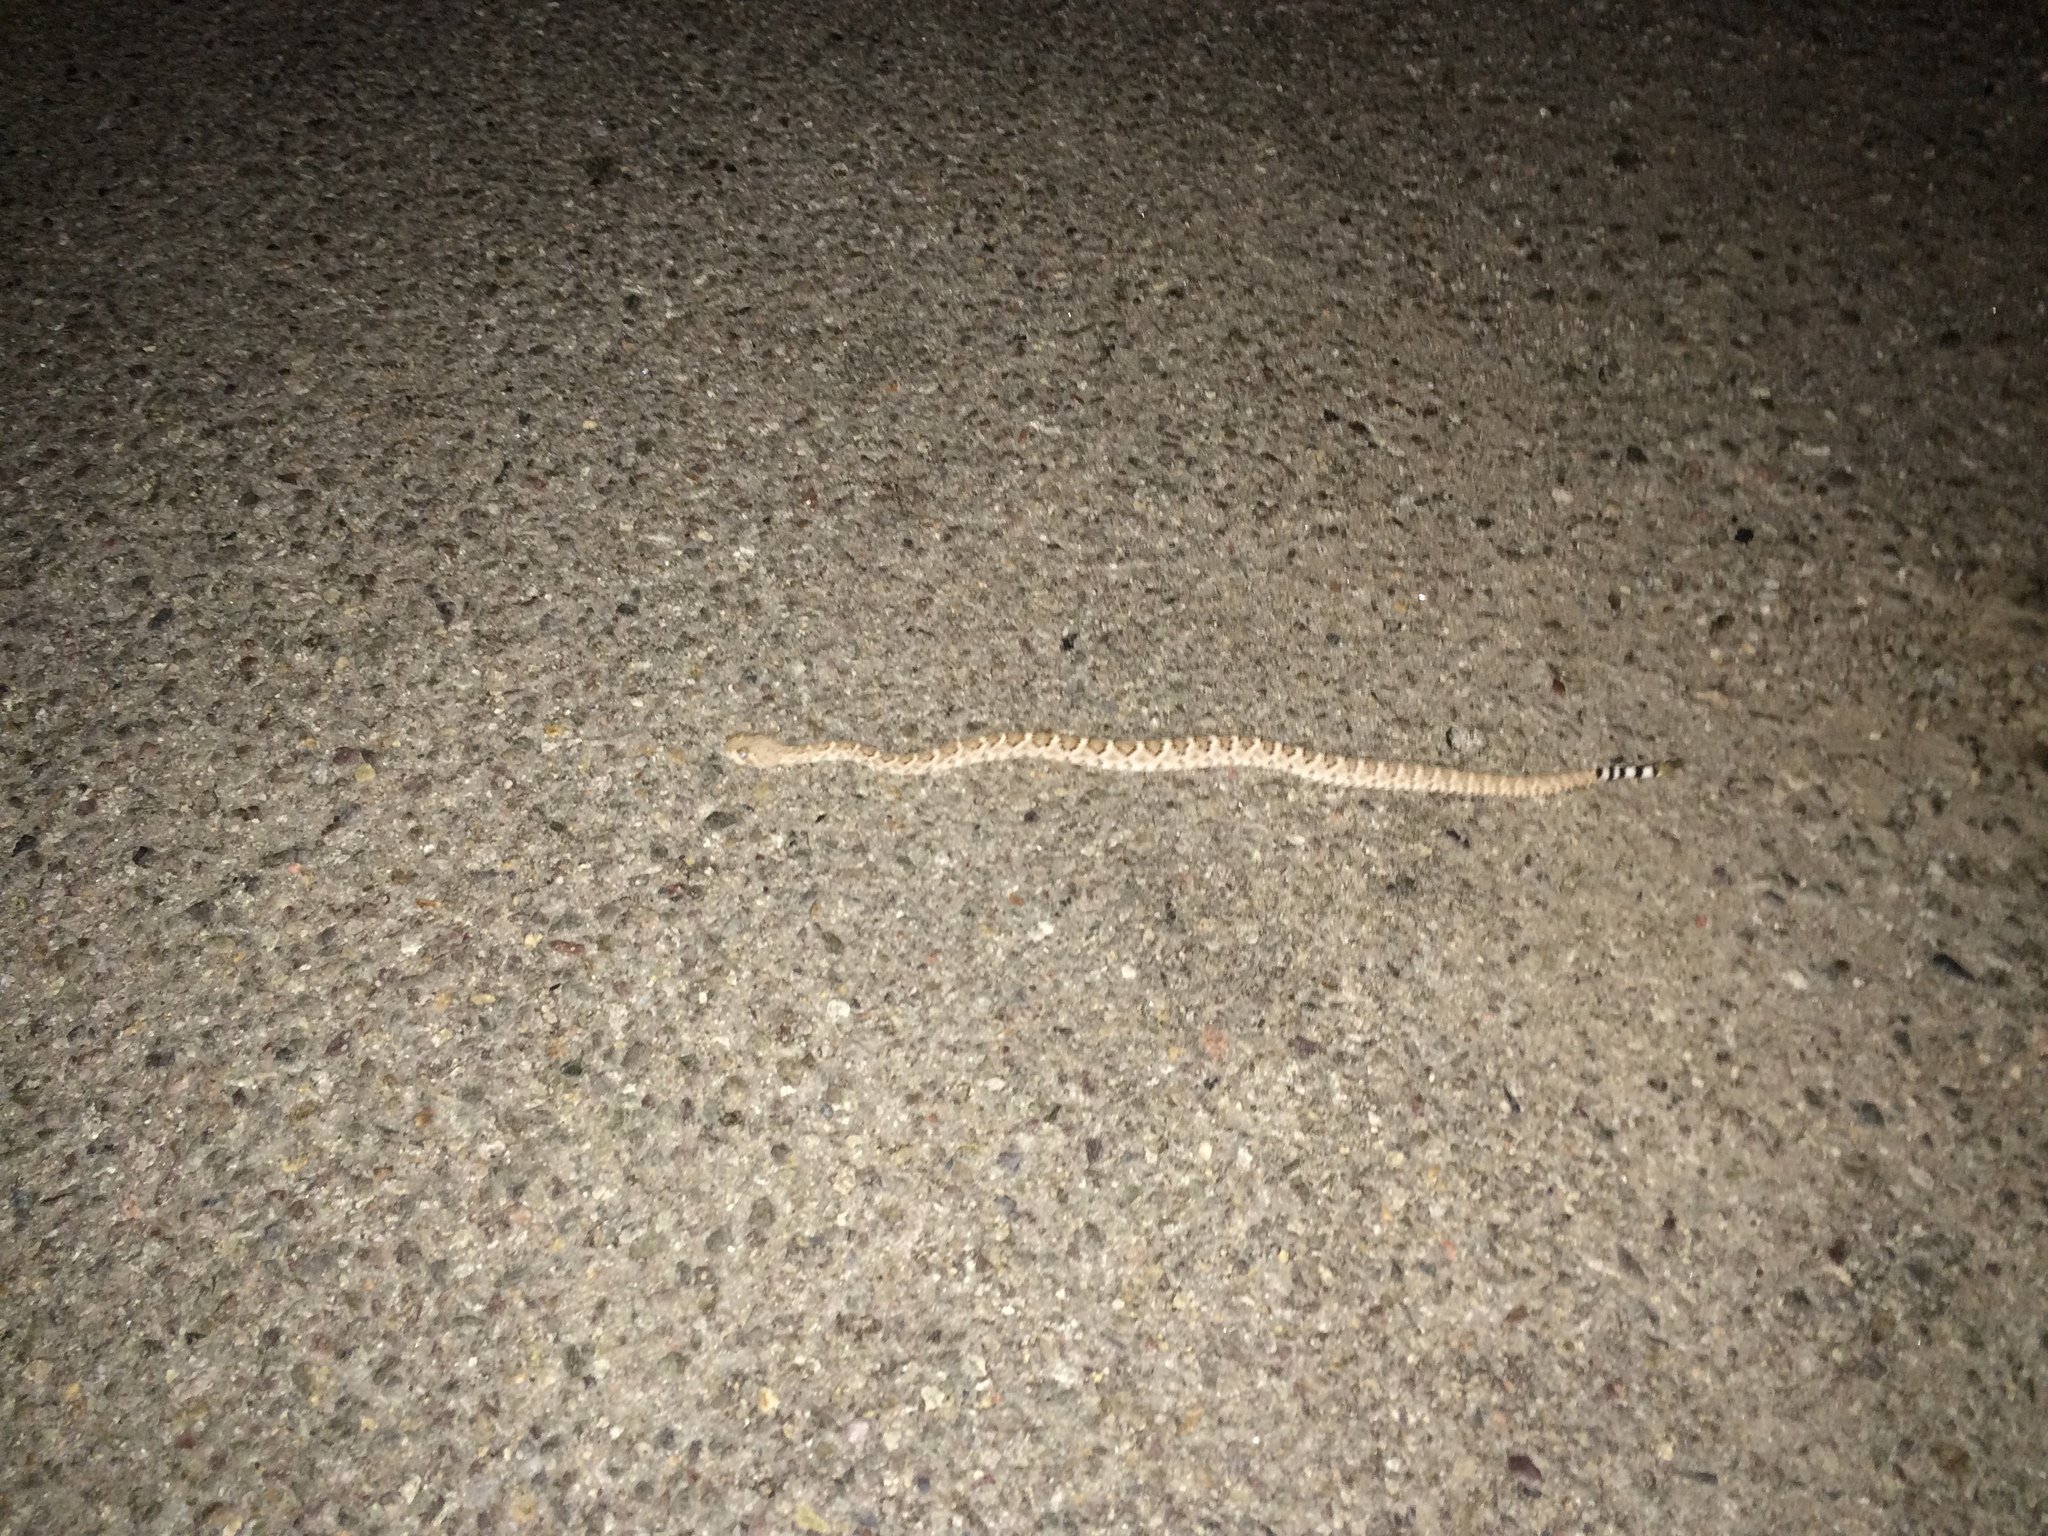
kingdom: Animalia
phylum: Chordata
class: Squamata
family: Viperidae
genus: Crotalus
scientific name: Crotalus atrox
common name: Western diamond-backed rattlesnake
